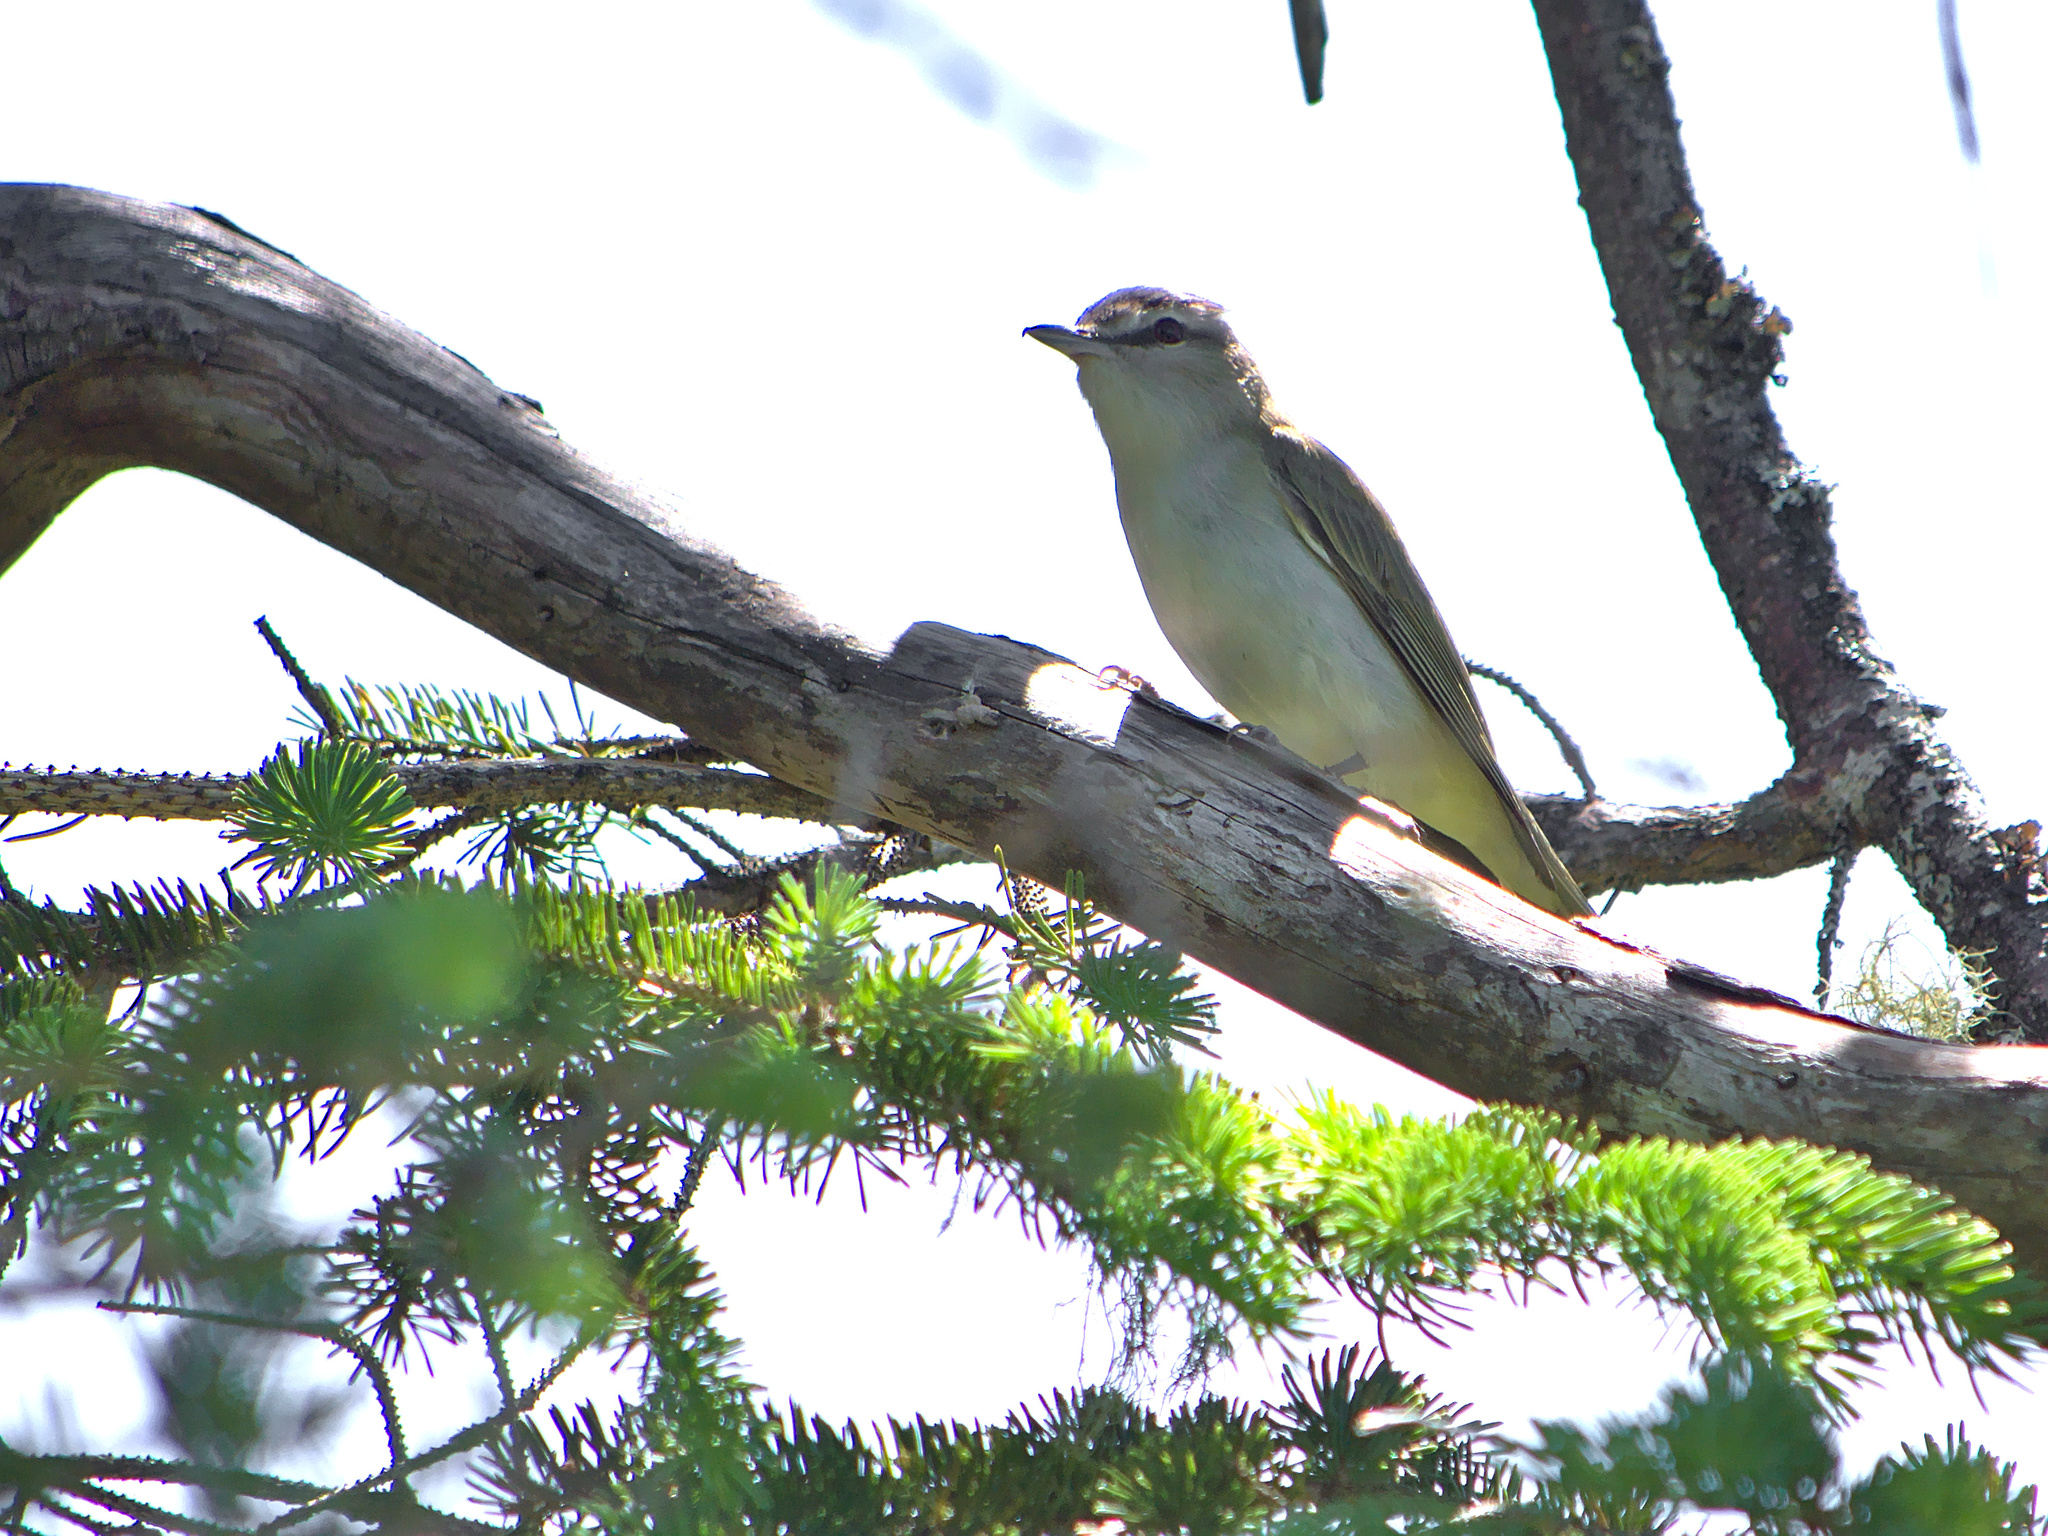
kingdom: Animalia
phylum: Chordata
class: Aves
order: Passeriformes
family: Vireonidae
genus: Vireo
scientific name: Vireo olivaceus
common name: Red-eyed vireo
